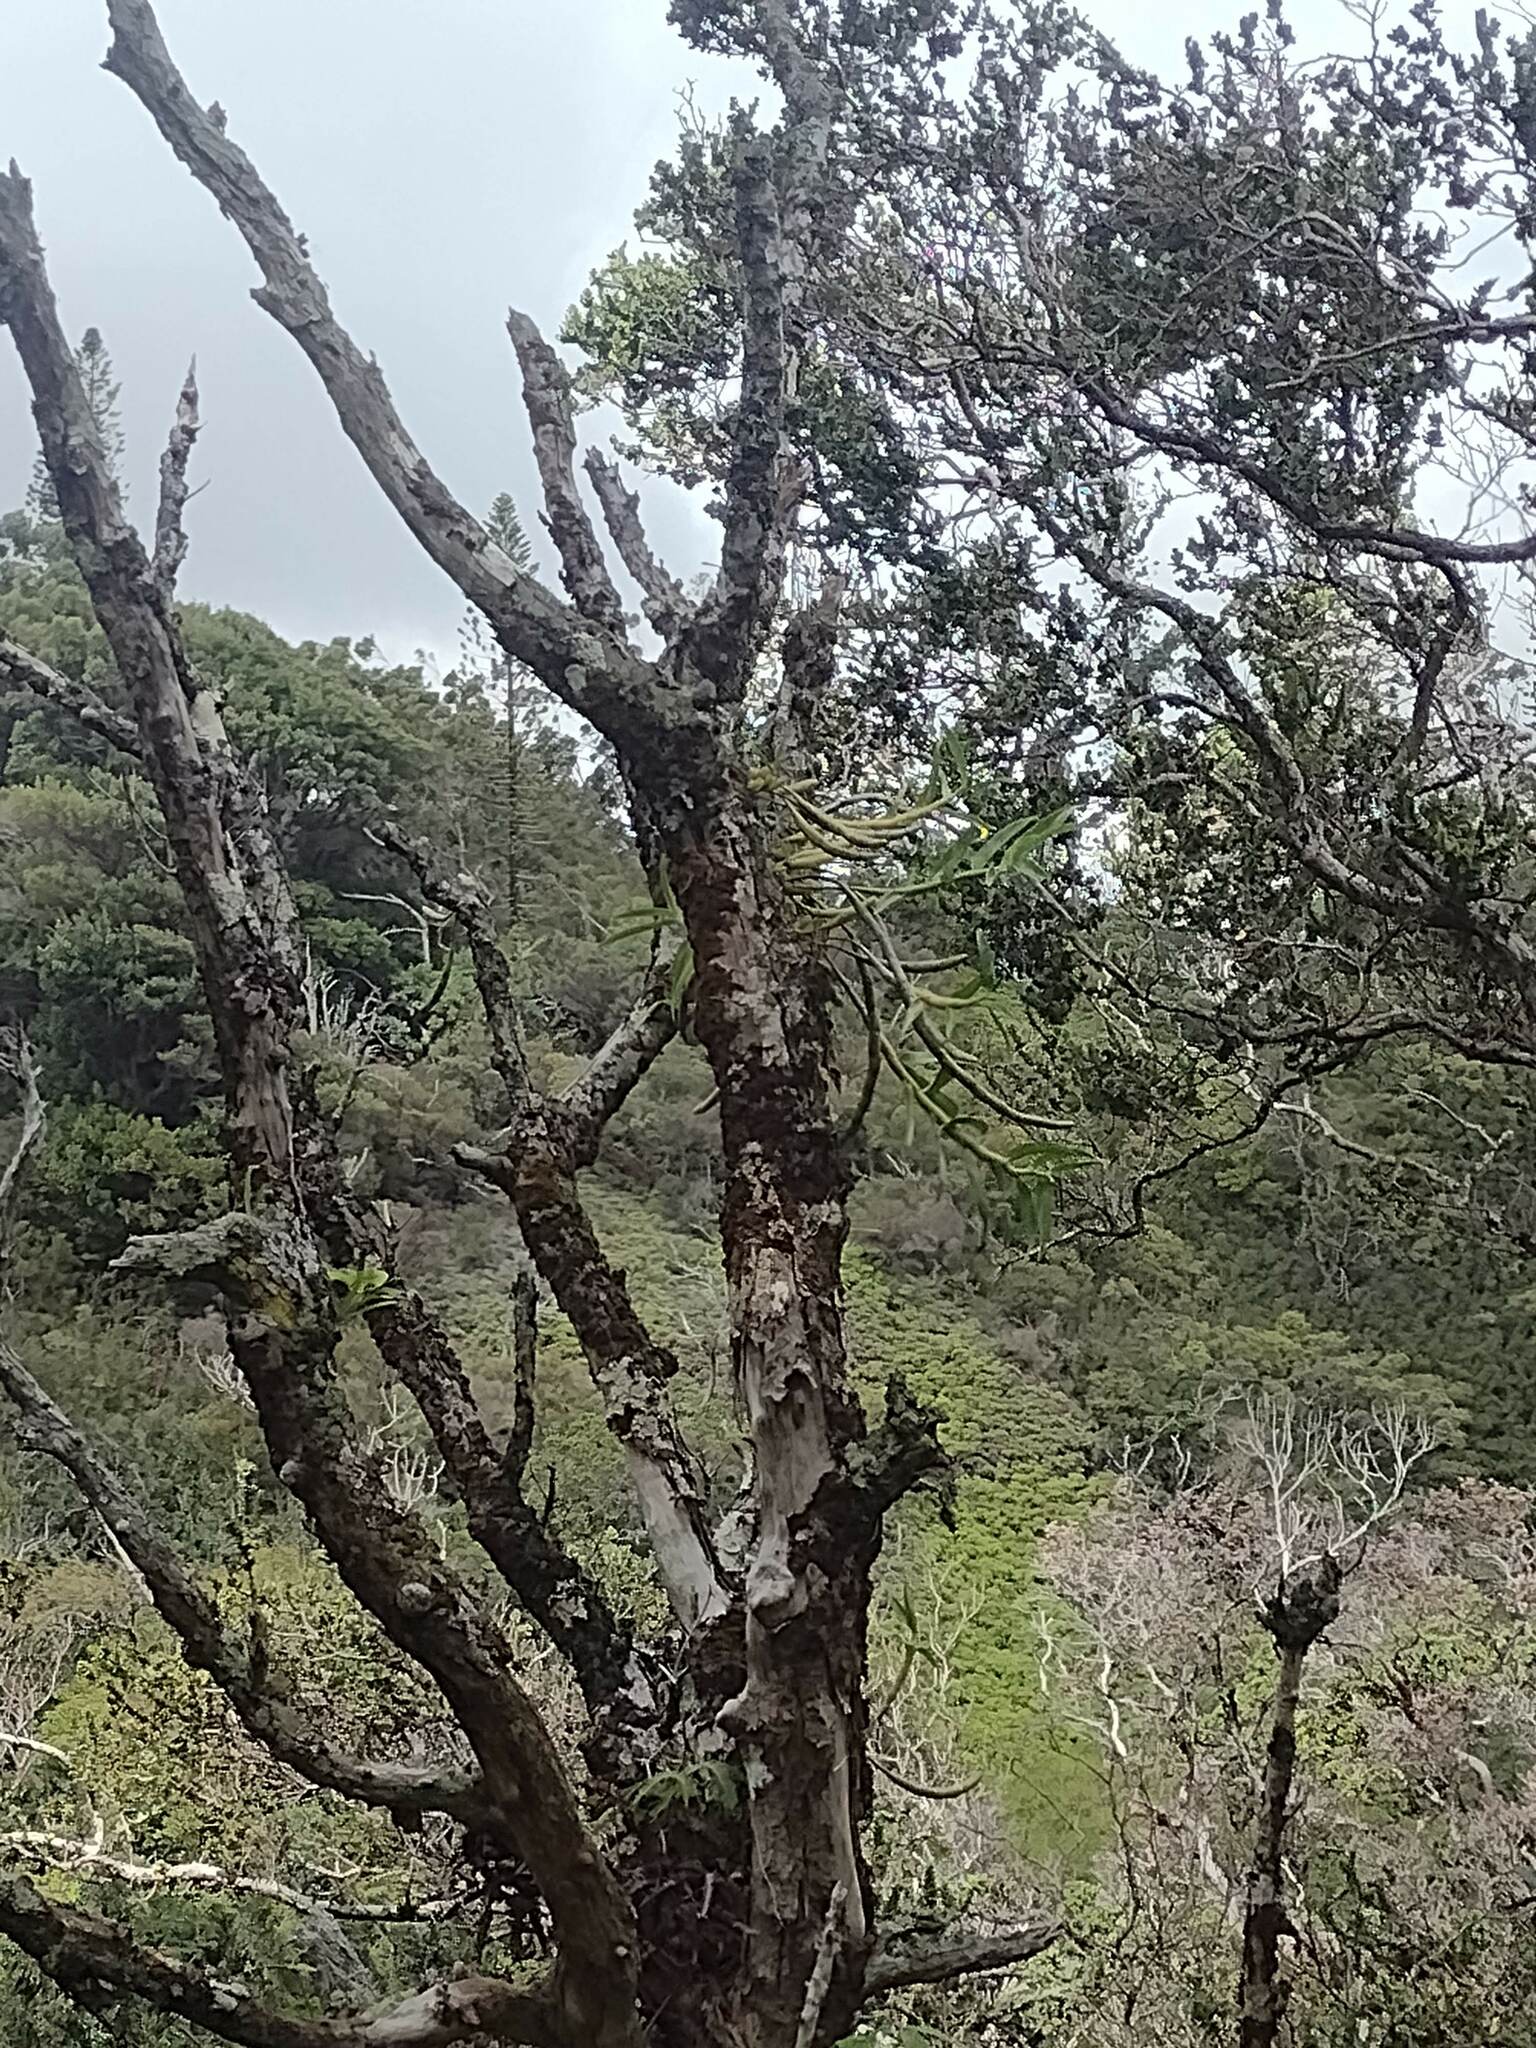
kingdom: Plantae
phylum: Tracheophyta
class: Liliopsida
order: Asparagales
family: Orchidaceae
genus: Dendrobium
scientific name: Dendrobium rhombeum
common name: Orchid
